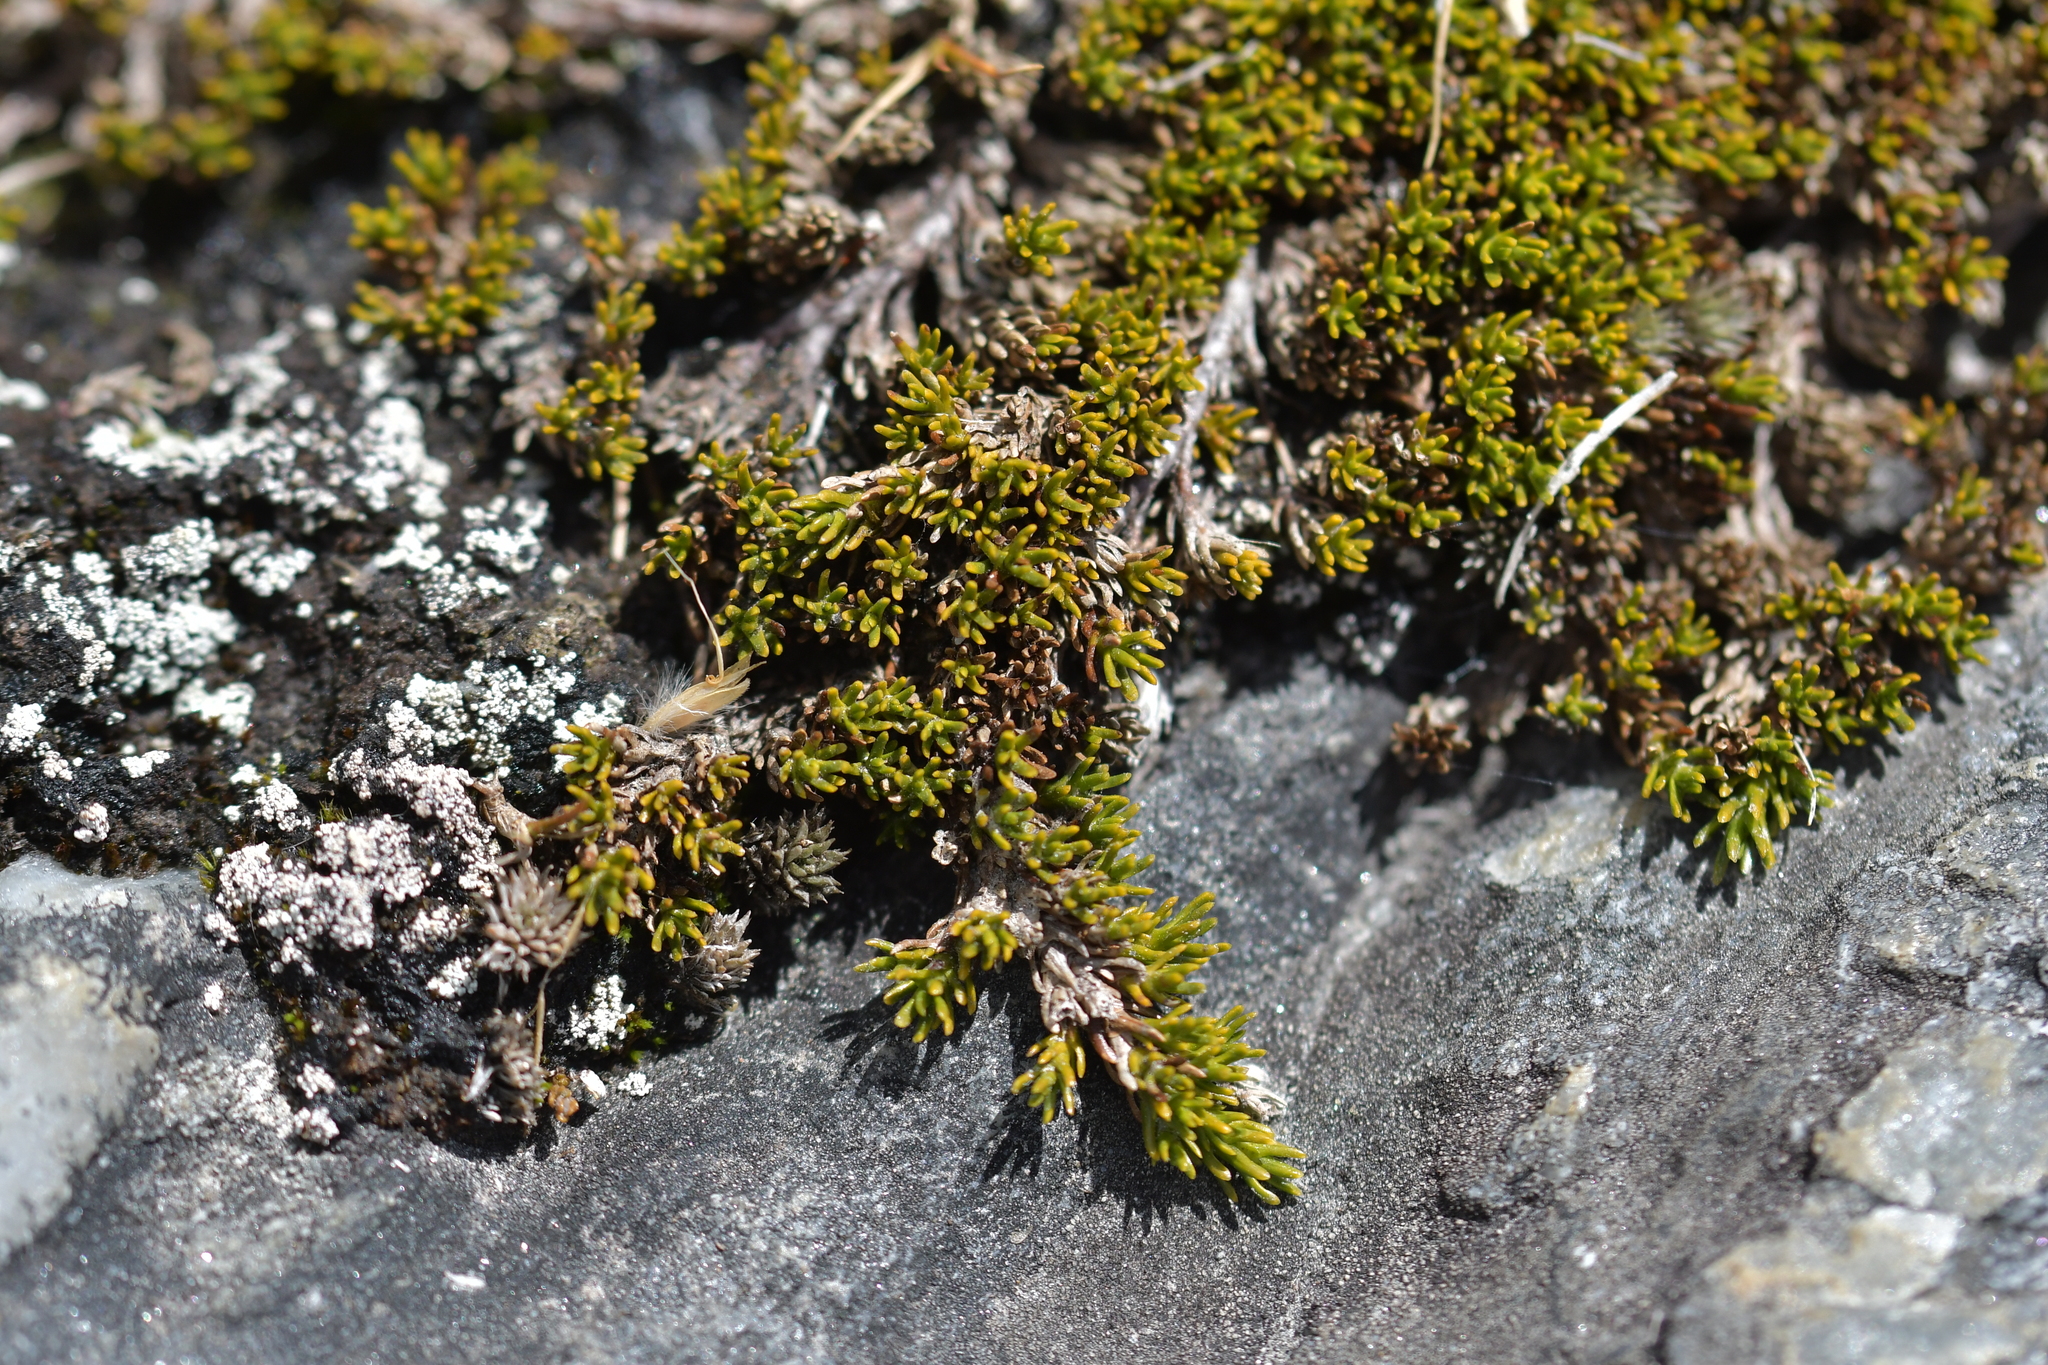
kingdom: Plantae
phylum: Tracheophyta
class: Magnoliopsida
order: Ericales
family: Ericaceae
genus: Dracophyllum
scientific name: Dracophyllum muscoides
